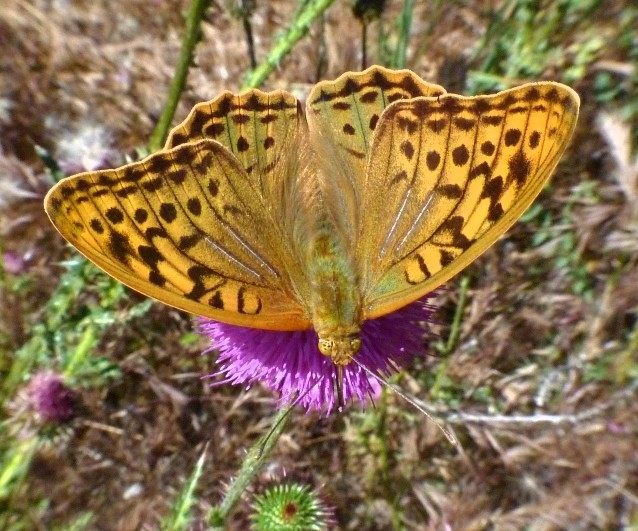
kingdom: Animalia
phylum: Arthropoda
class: Insecta
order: Lepidoptera
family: Nymphalidae
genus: Damora
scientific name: Damora pandora
